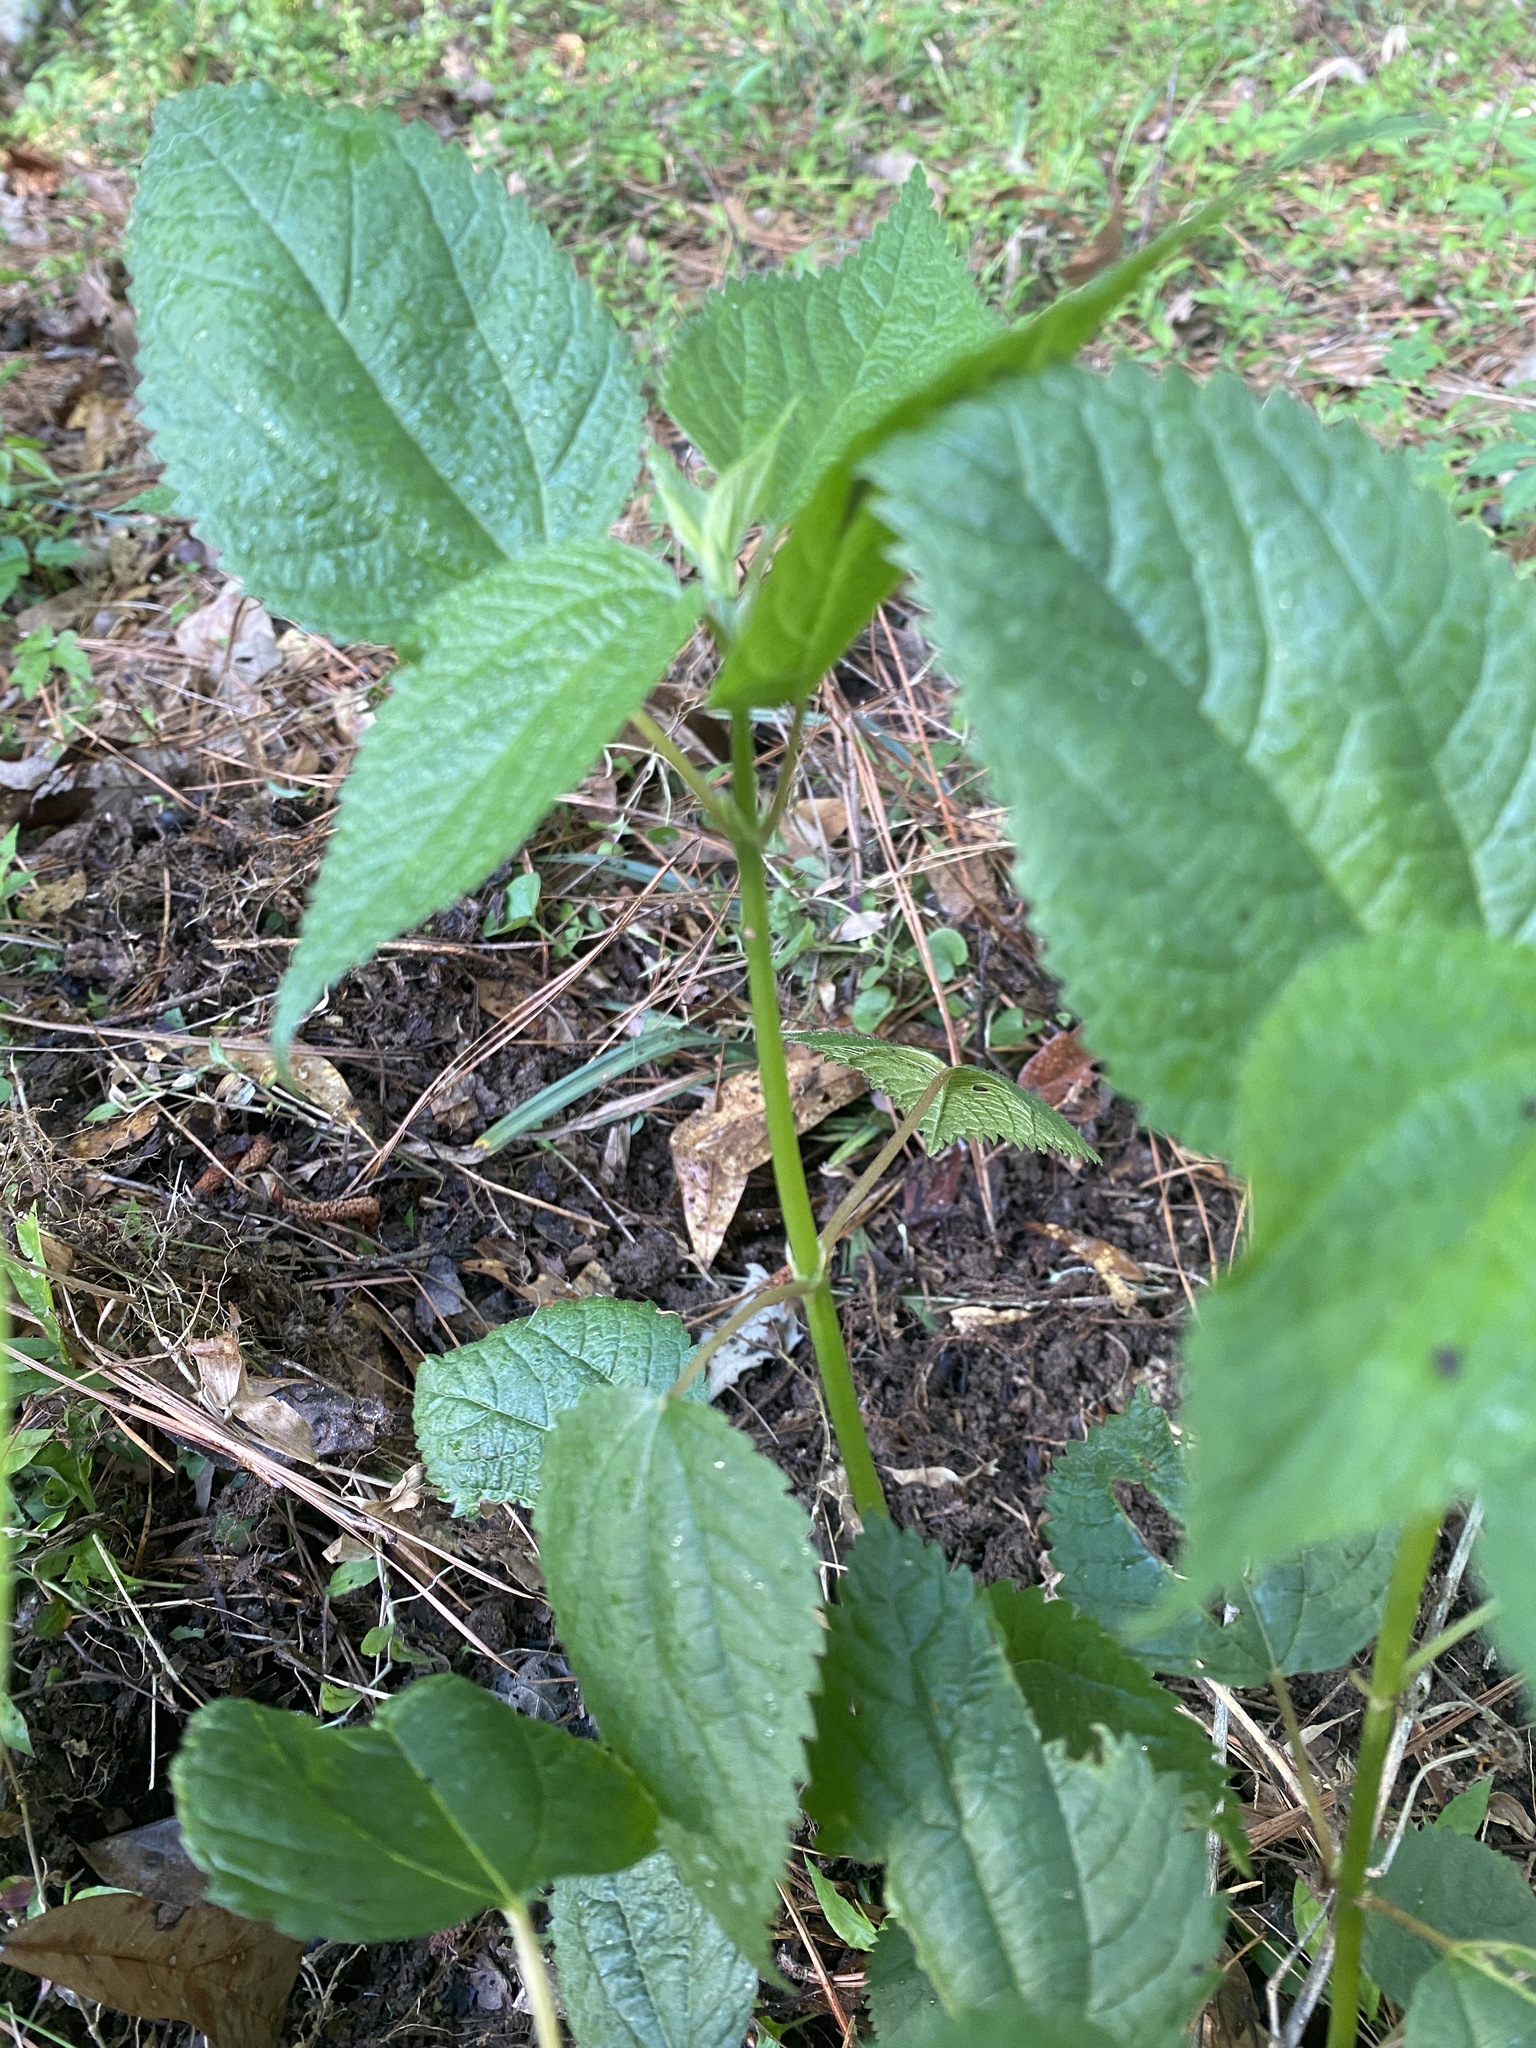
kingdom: Plantae
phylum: Tracheophyta
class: Magnoliopsida
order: Rosales
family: Urticaceae
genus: Boehmeria
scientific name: Boehmeria cylindrica
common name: Bog-hemp
